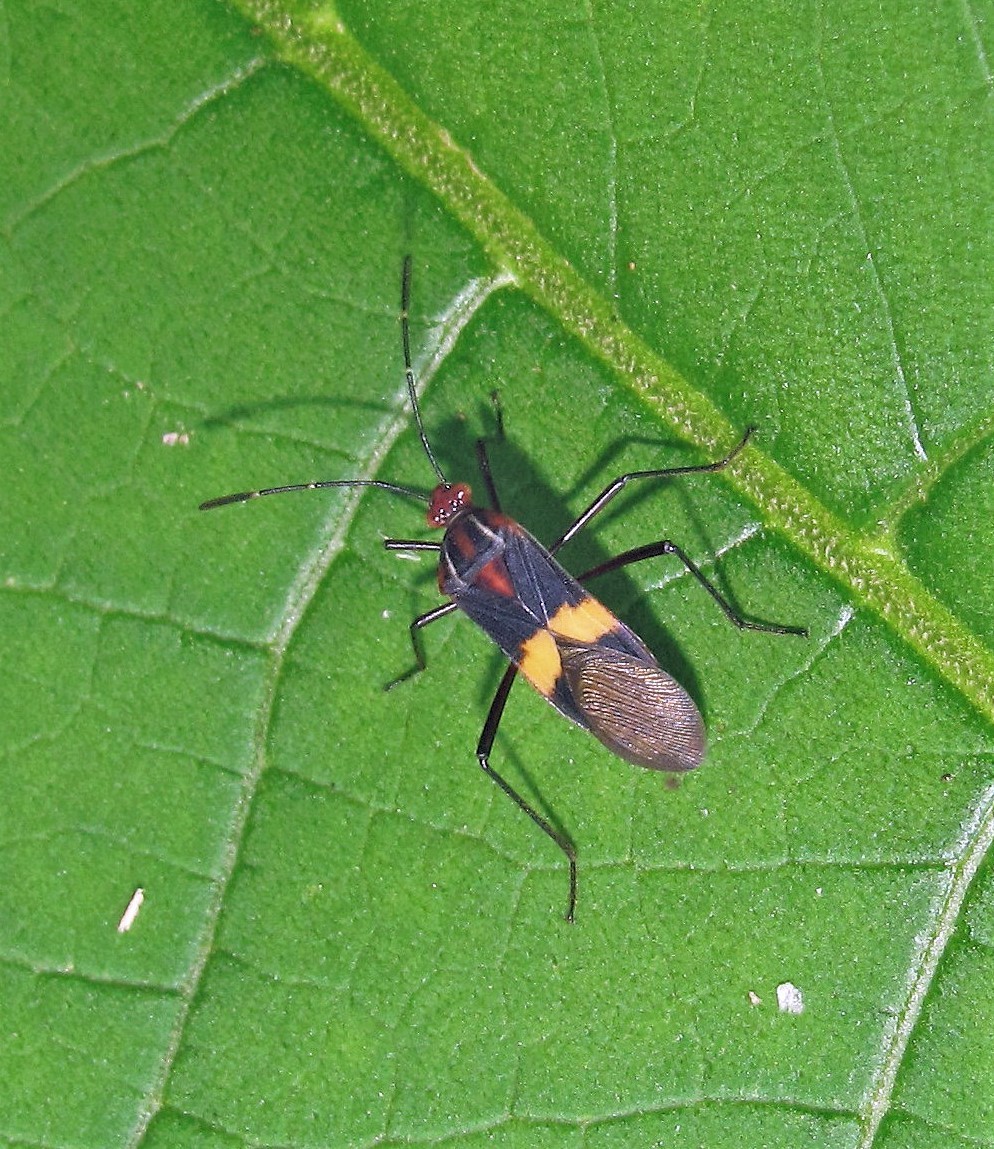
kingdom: Animalia
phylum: Arthropoda
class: Insecta
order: Hemiptera
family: Coreidae
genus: Hypselonotus
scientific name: Hypselonotus interruptus
